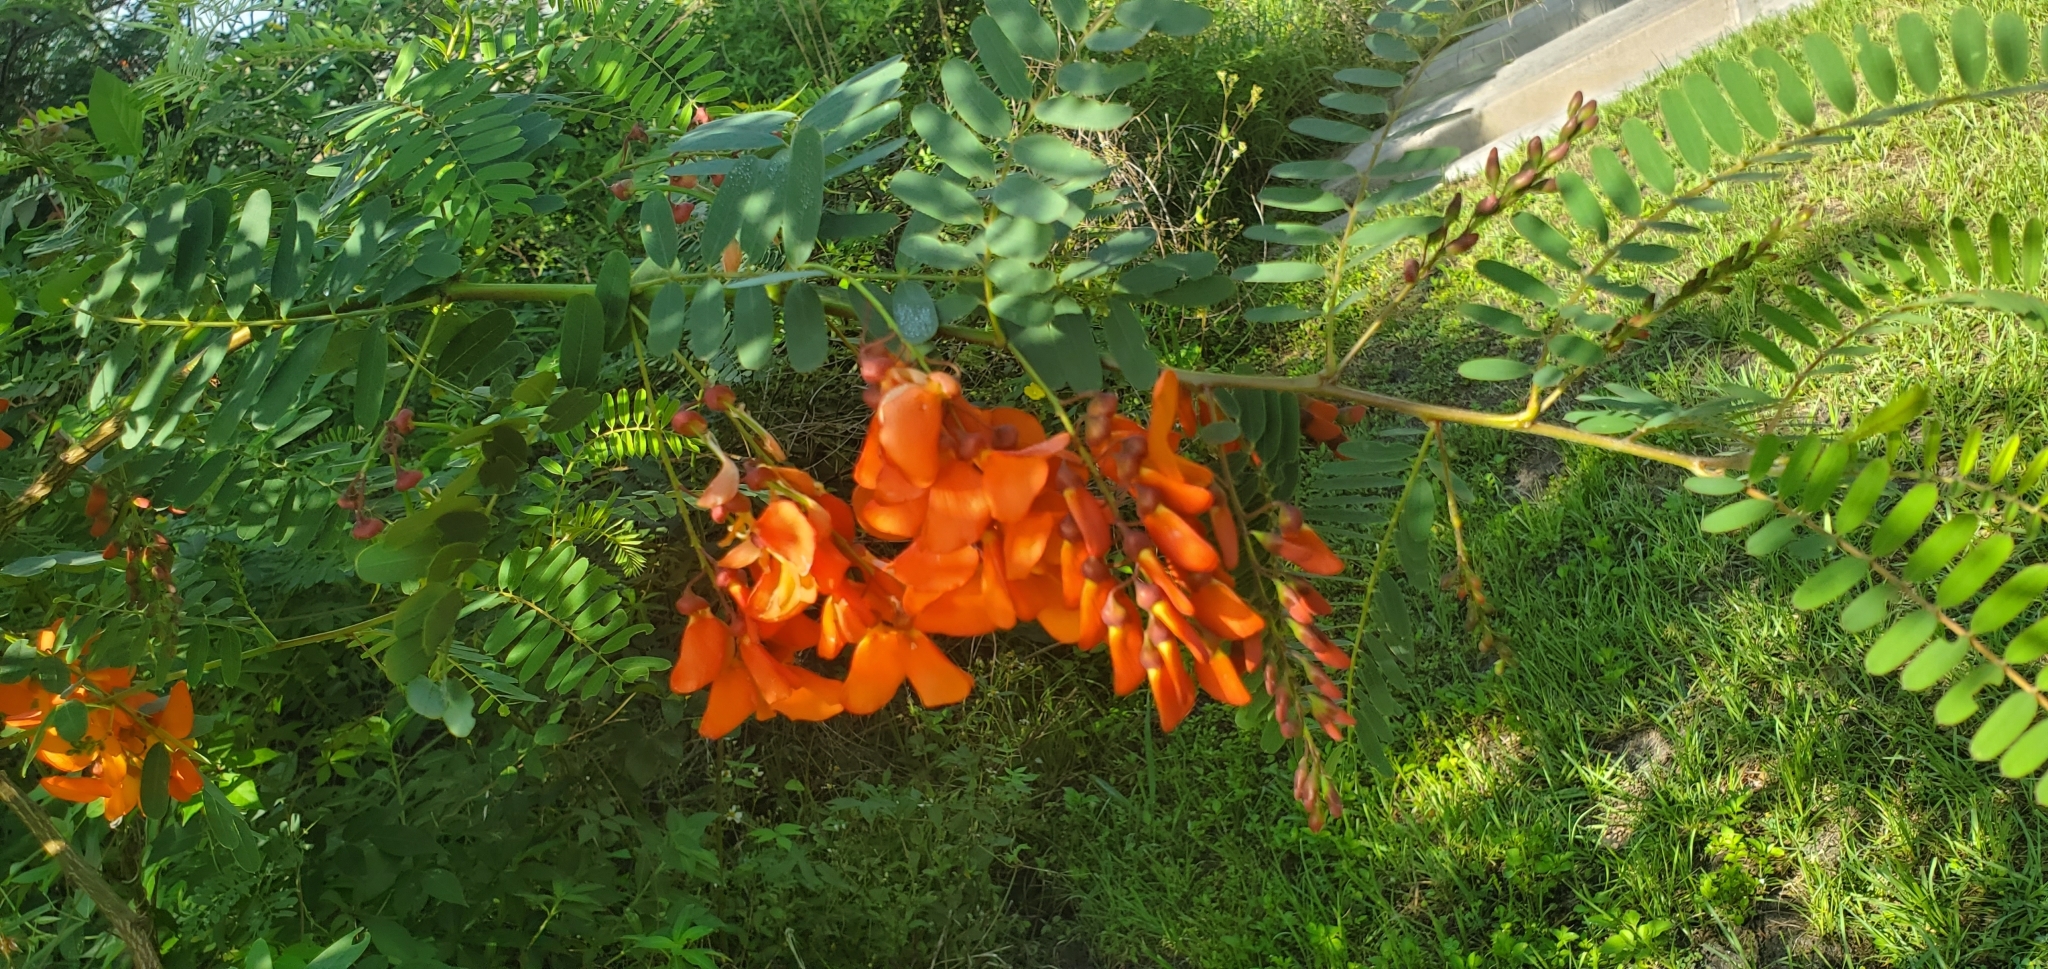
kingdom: Plantae
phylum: Tracheophyta
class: Magnoliopsida
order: Fabales
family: Fabaceae
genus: Sesbania
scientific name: Sesbania punicea
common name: Rattlebox
